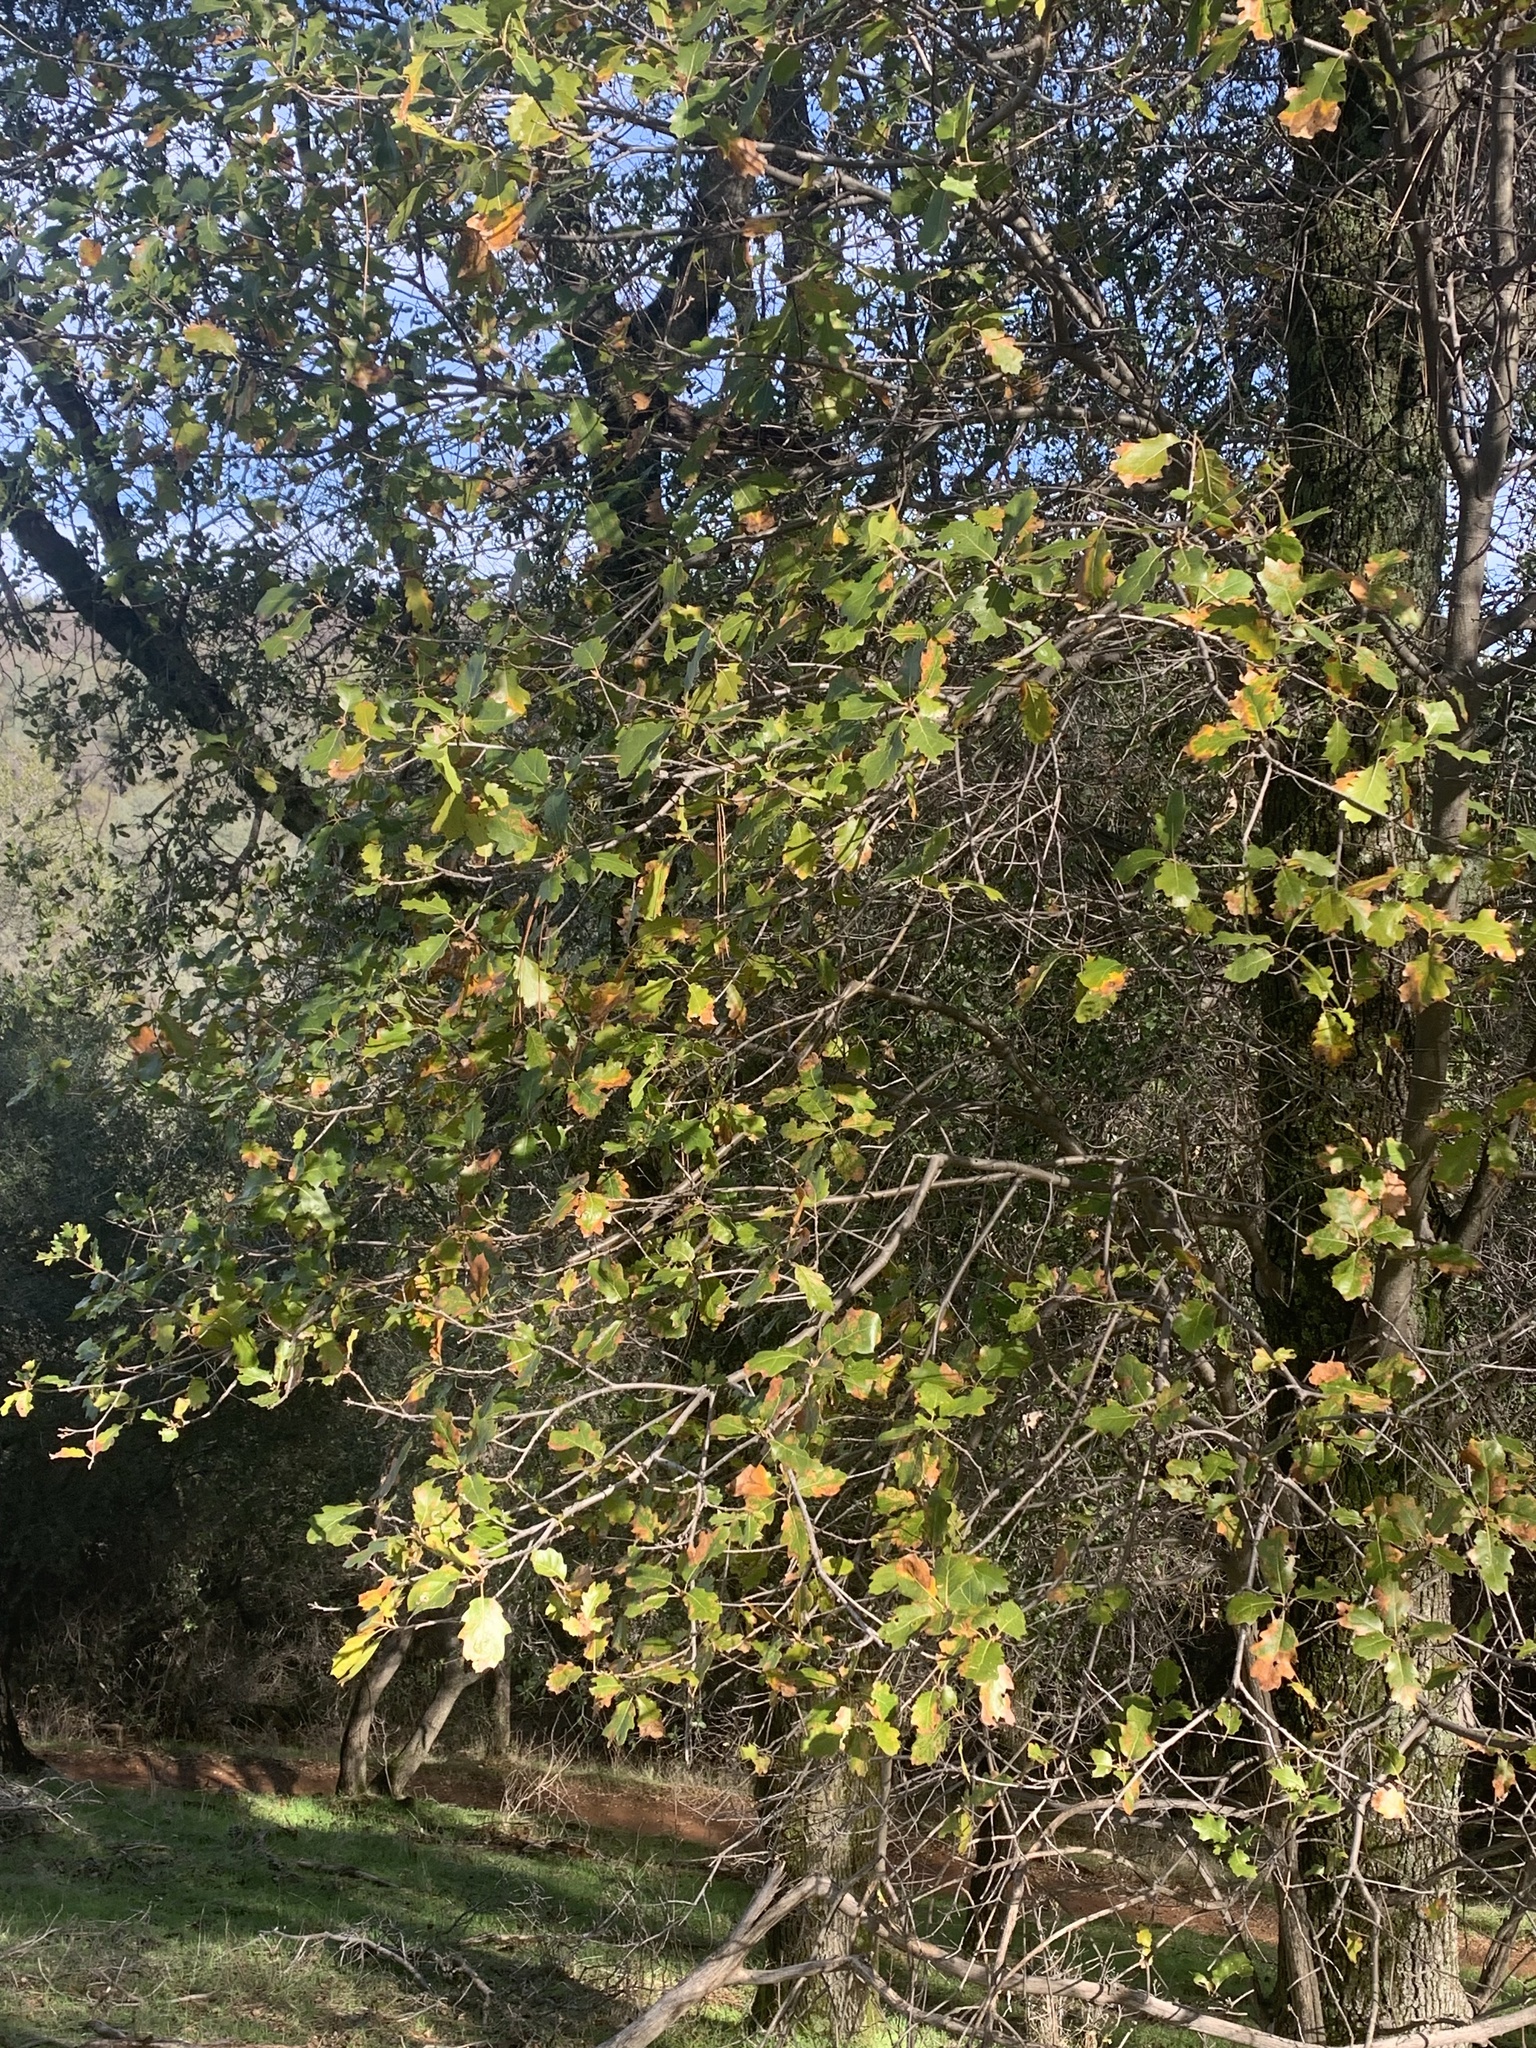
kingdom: Plantae
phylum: Tracheophyta
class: Magnoliopsida
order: Fagales
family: Fagaceae
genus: Quercus
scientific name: Quercus morehus
